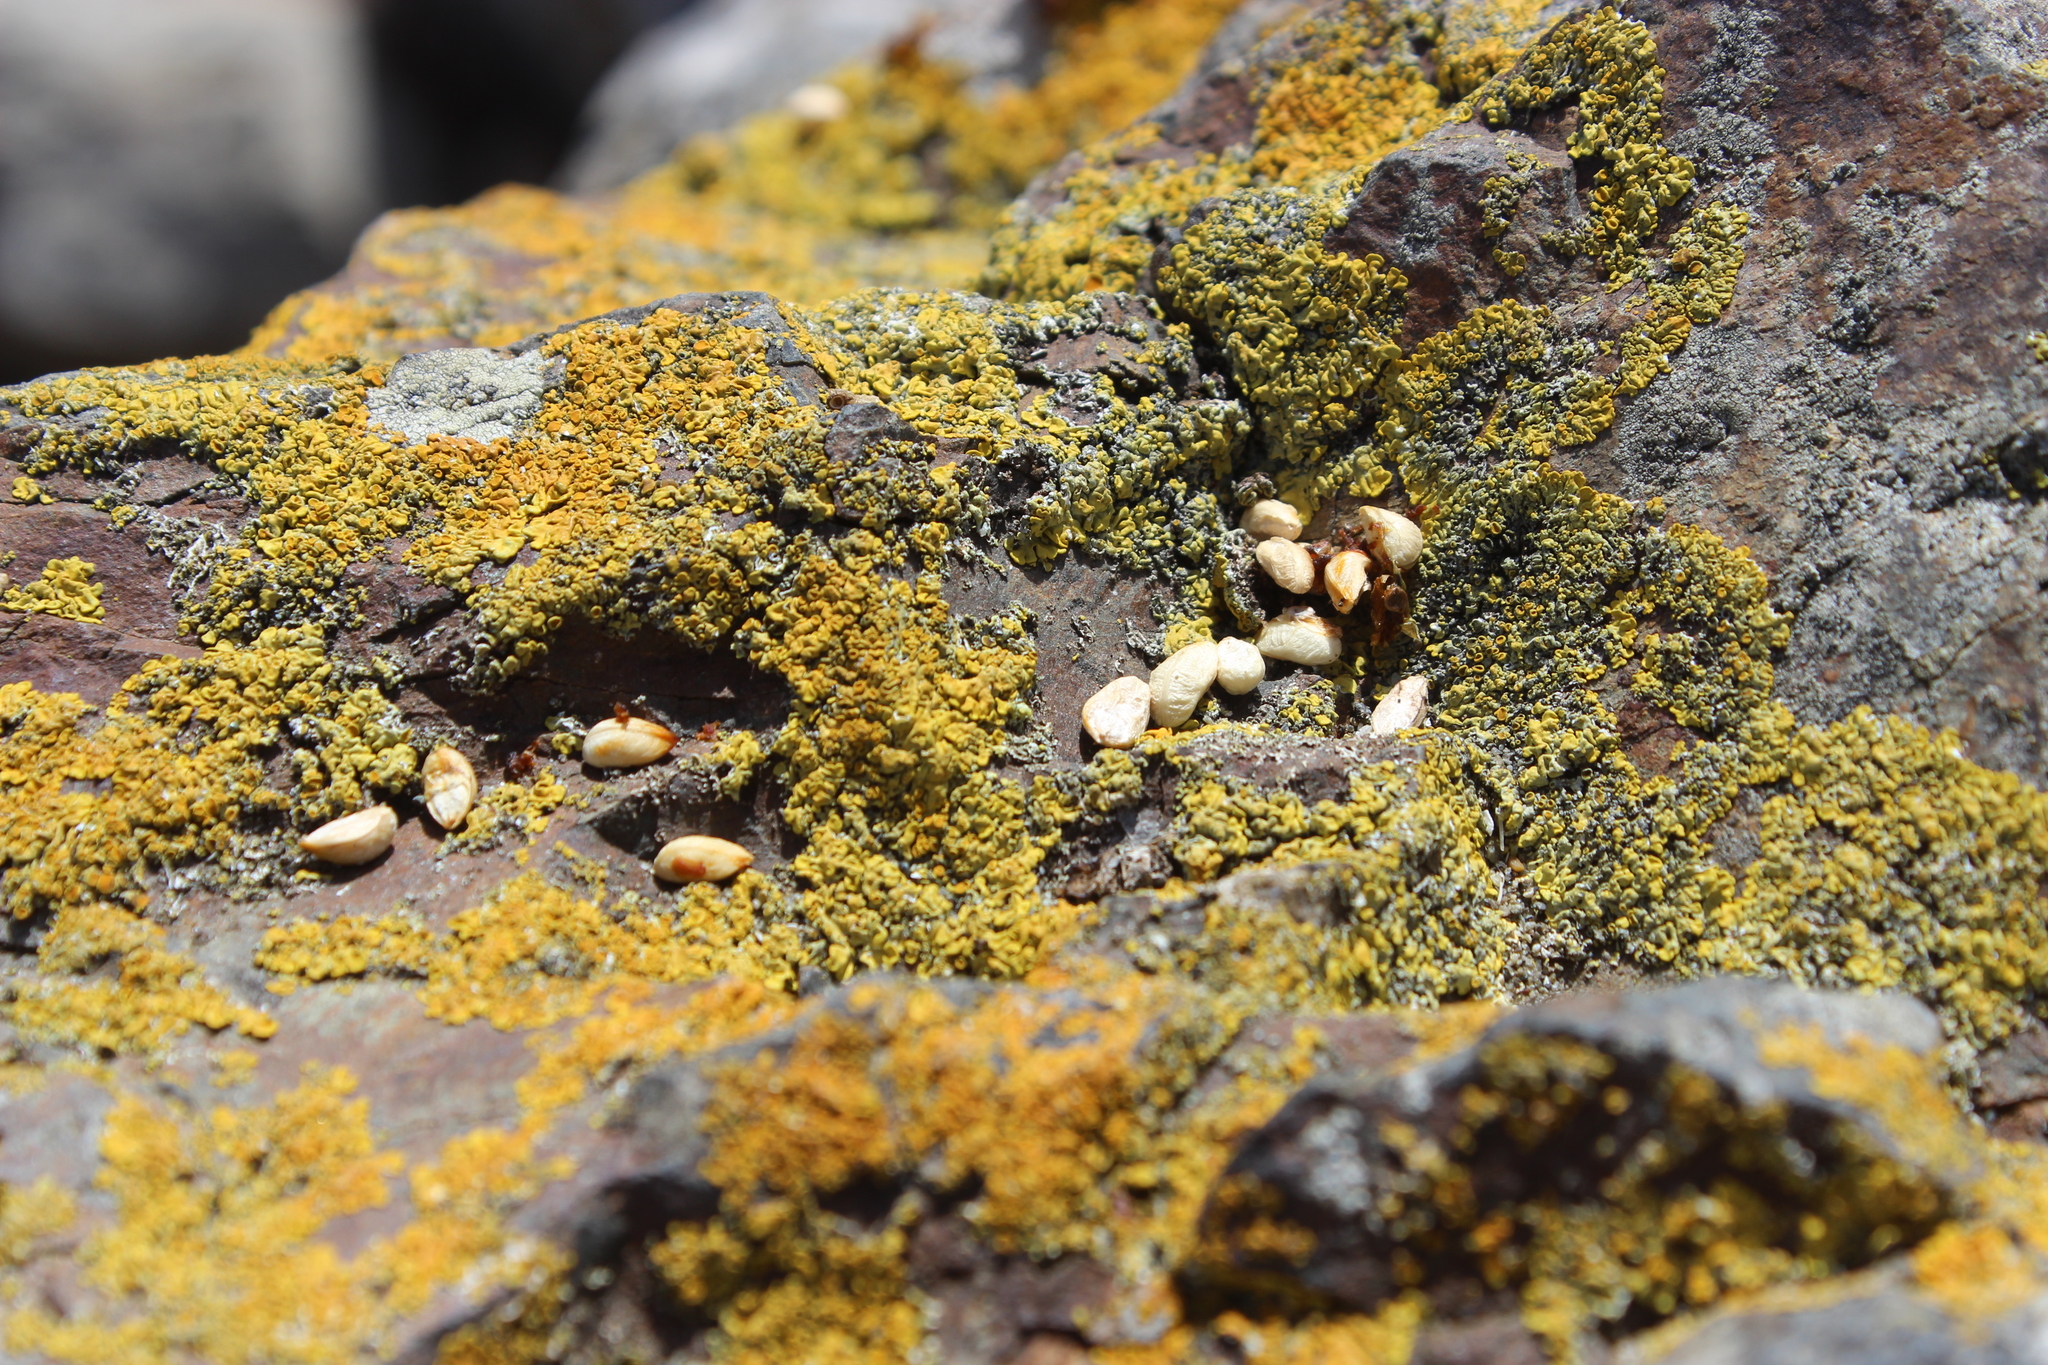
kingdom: Plantae
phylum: Tracheophyta
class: Magnoliopsida
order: Gentianales
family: Rubiaceae
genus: Coprosma
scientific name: Coprosma repens
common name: Tree bedstraw
